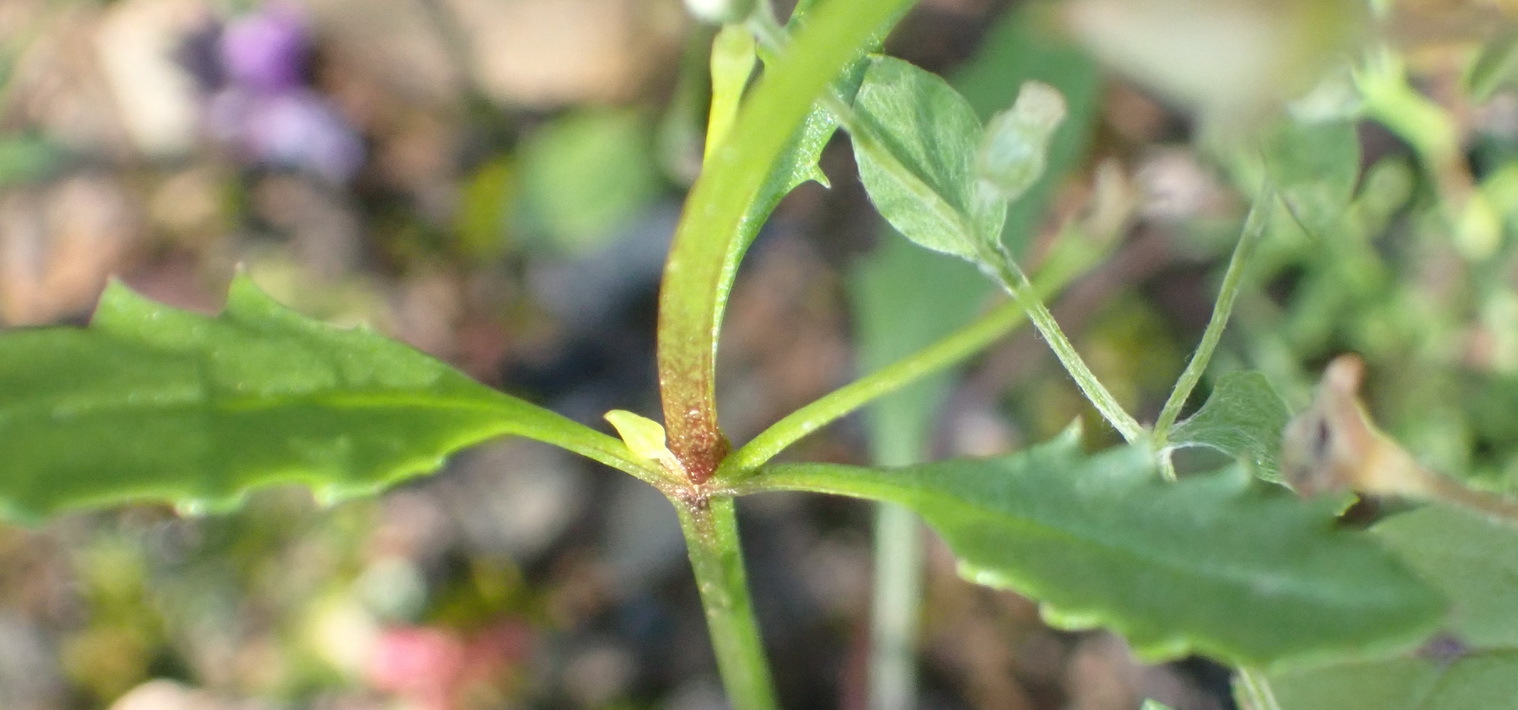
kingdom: Plantae
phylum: Tracheophyta
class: Magnoliopsida
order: Lamiales
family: Scrophulariaceae
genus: Diascia
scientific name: Diascia maculata
